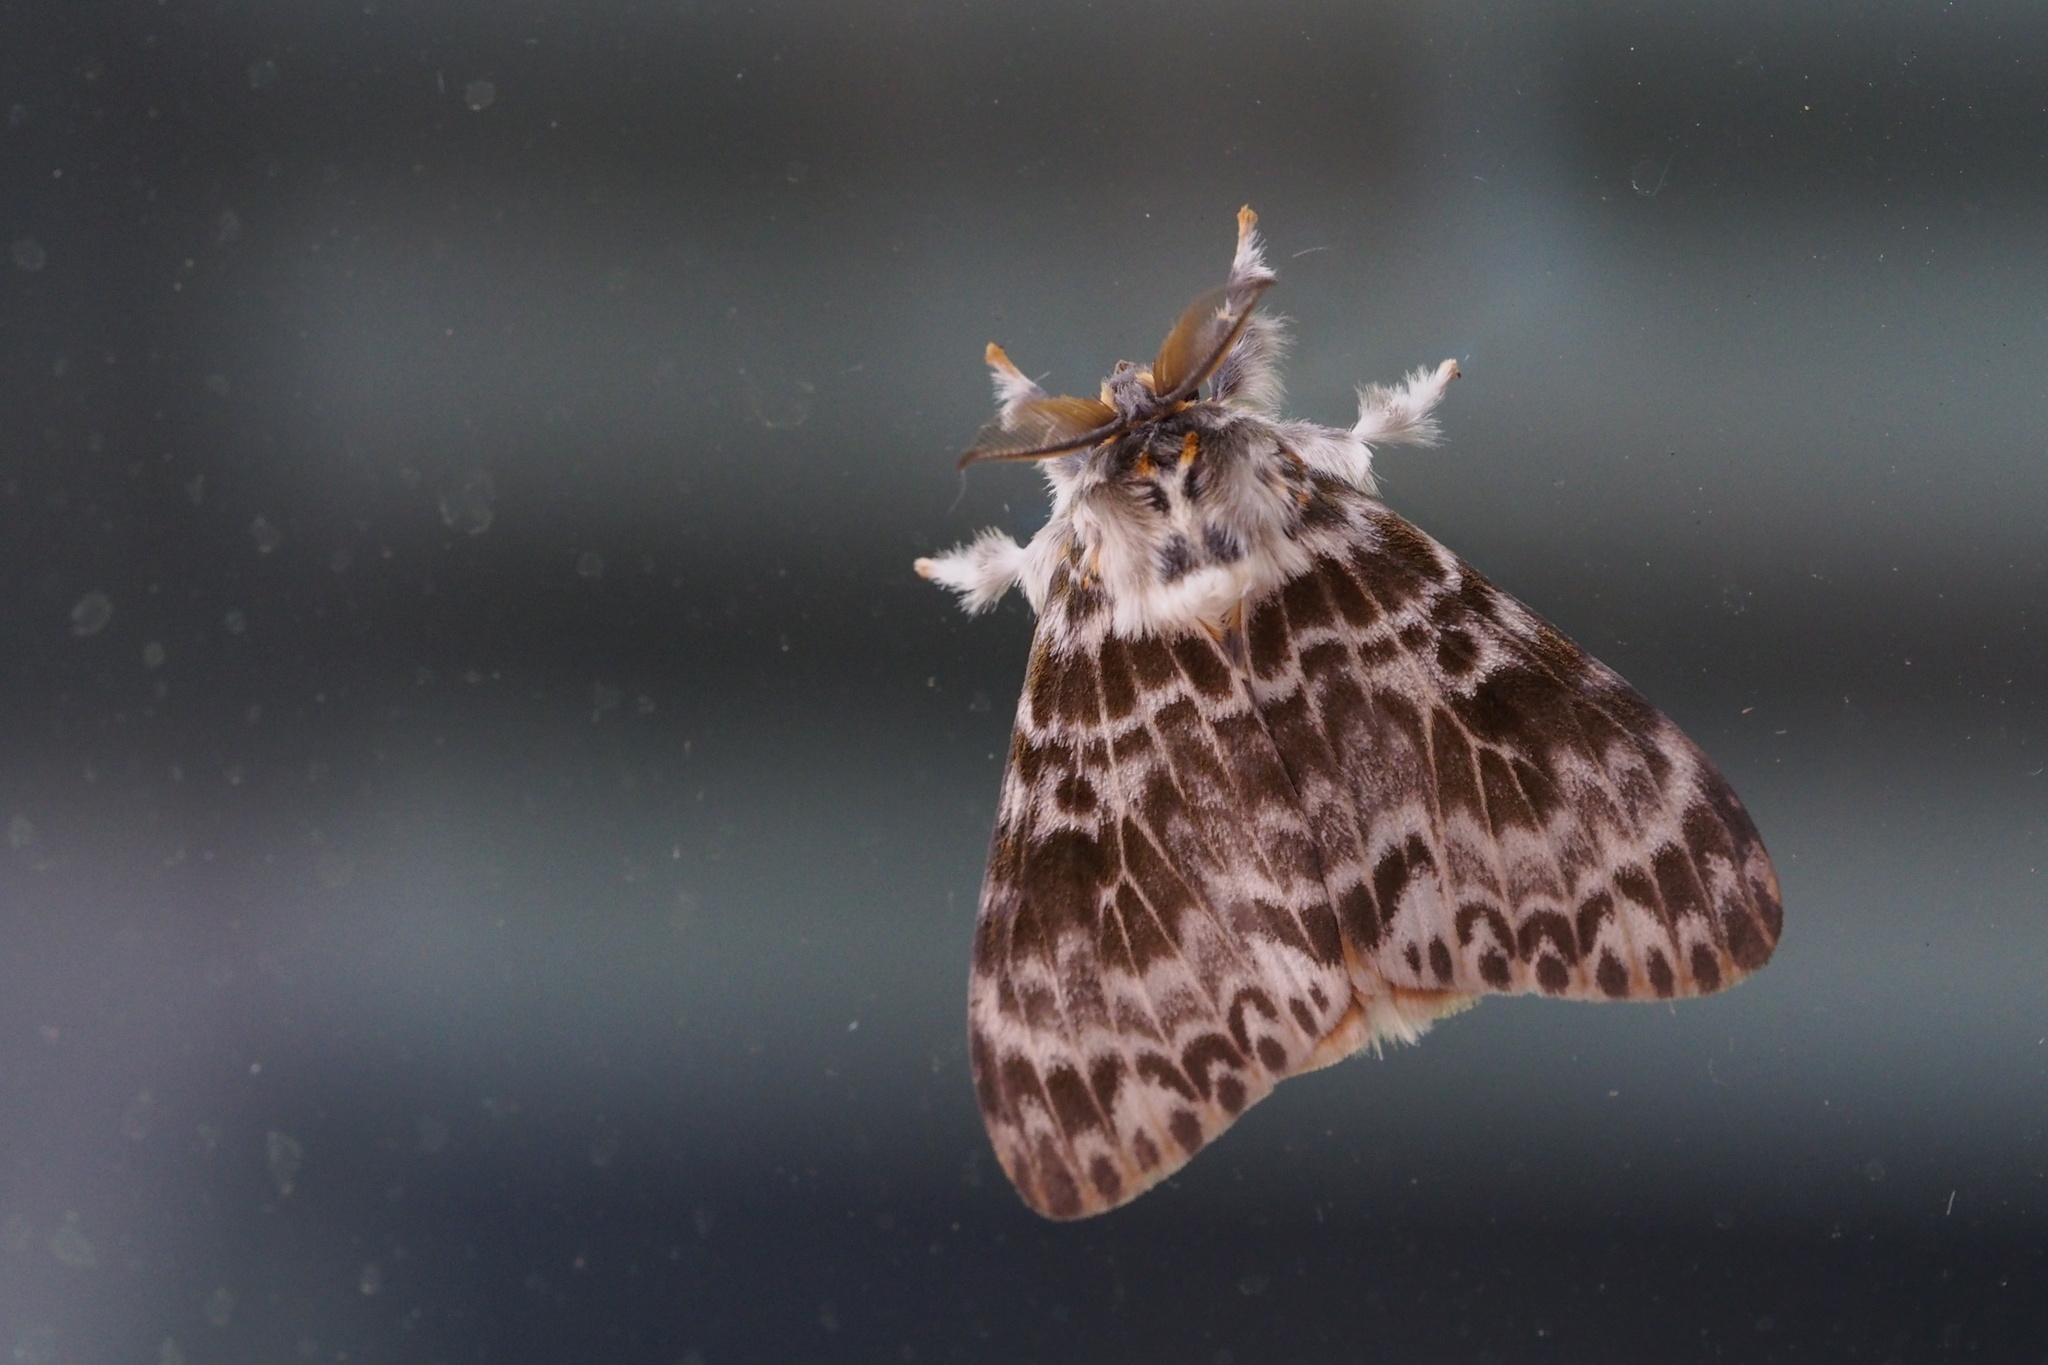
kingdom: Animalia
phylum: Arthropoda
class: Insecta
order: Lepidoptera
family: Erebidae
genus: Lymantria
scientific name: Lymantria mathura
